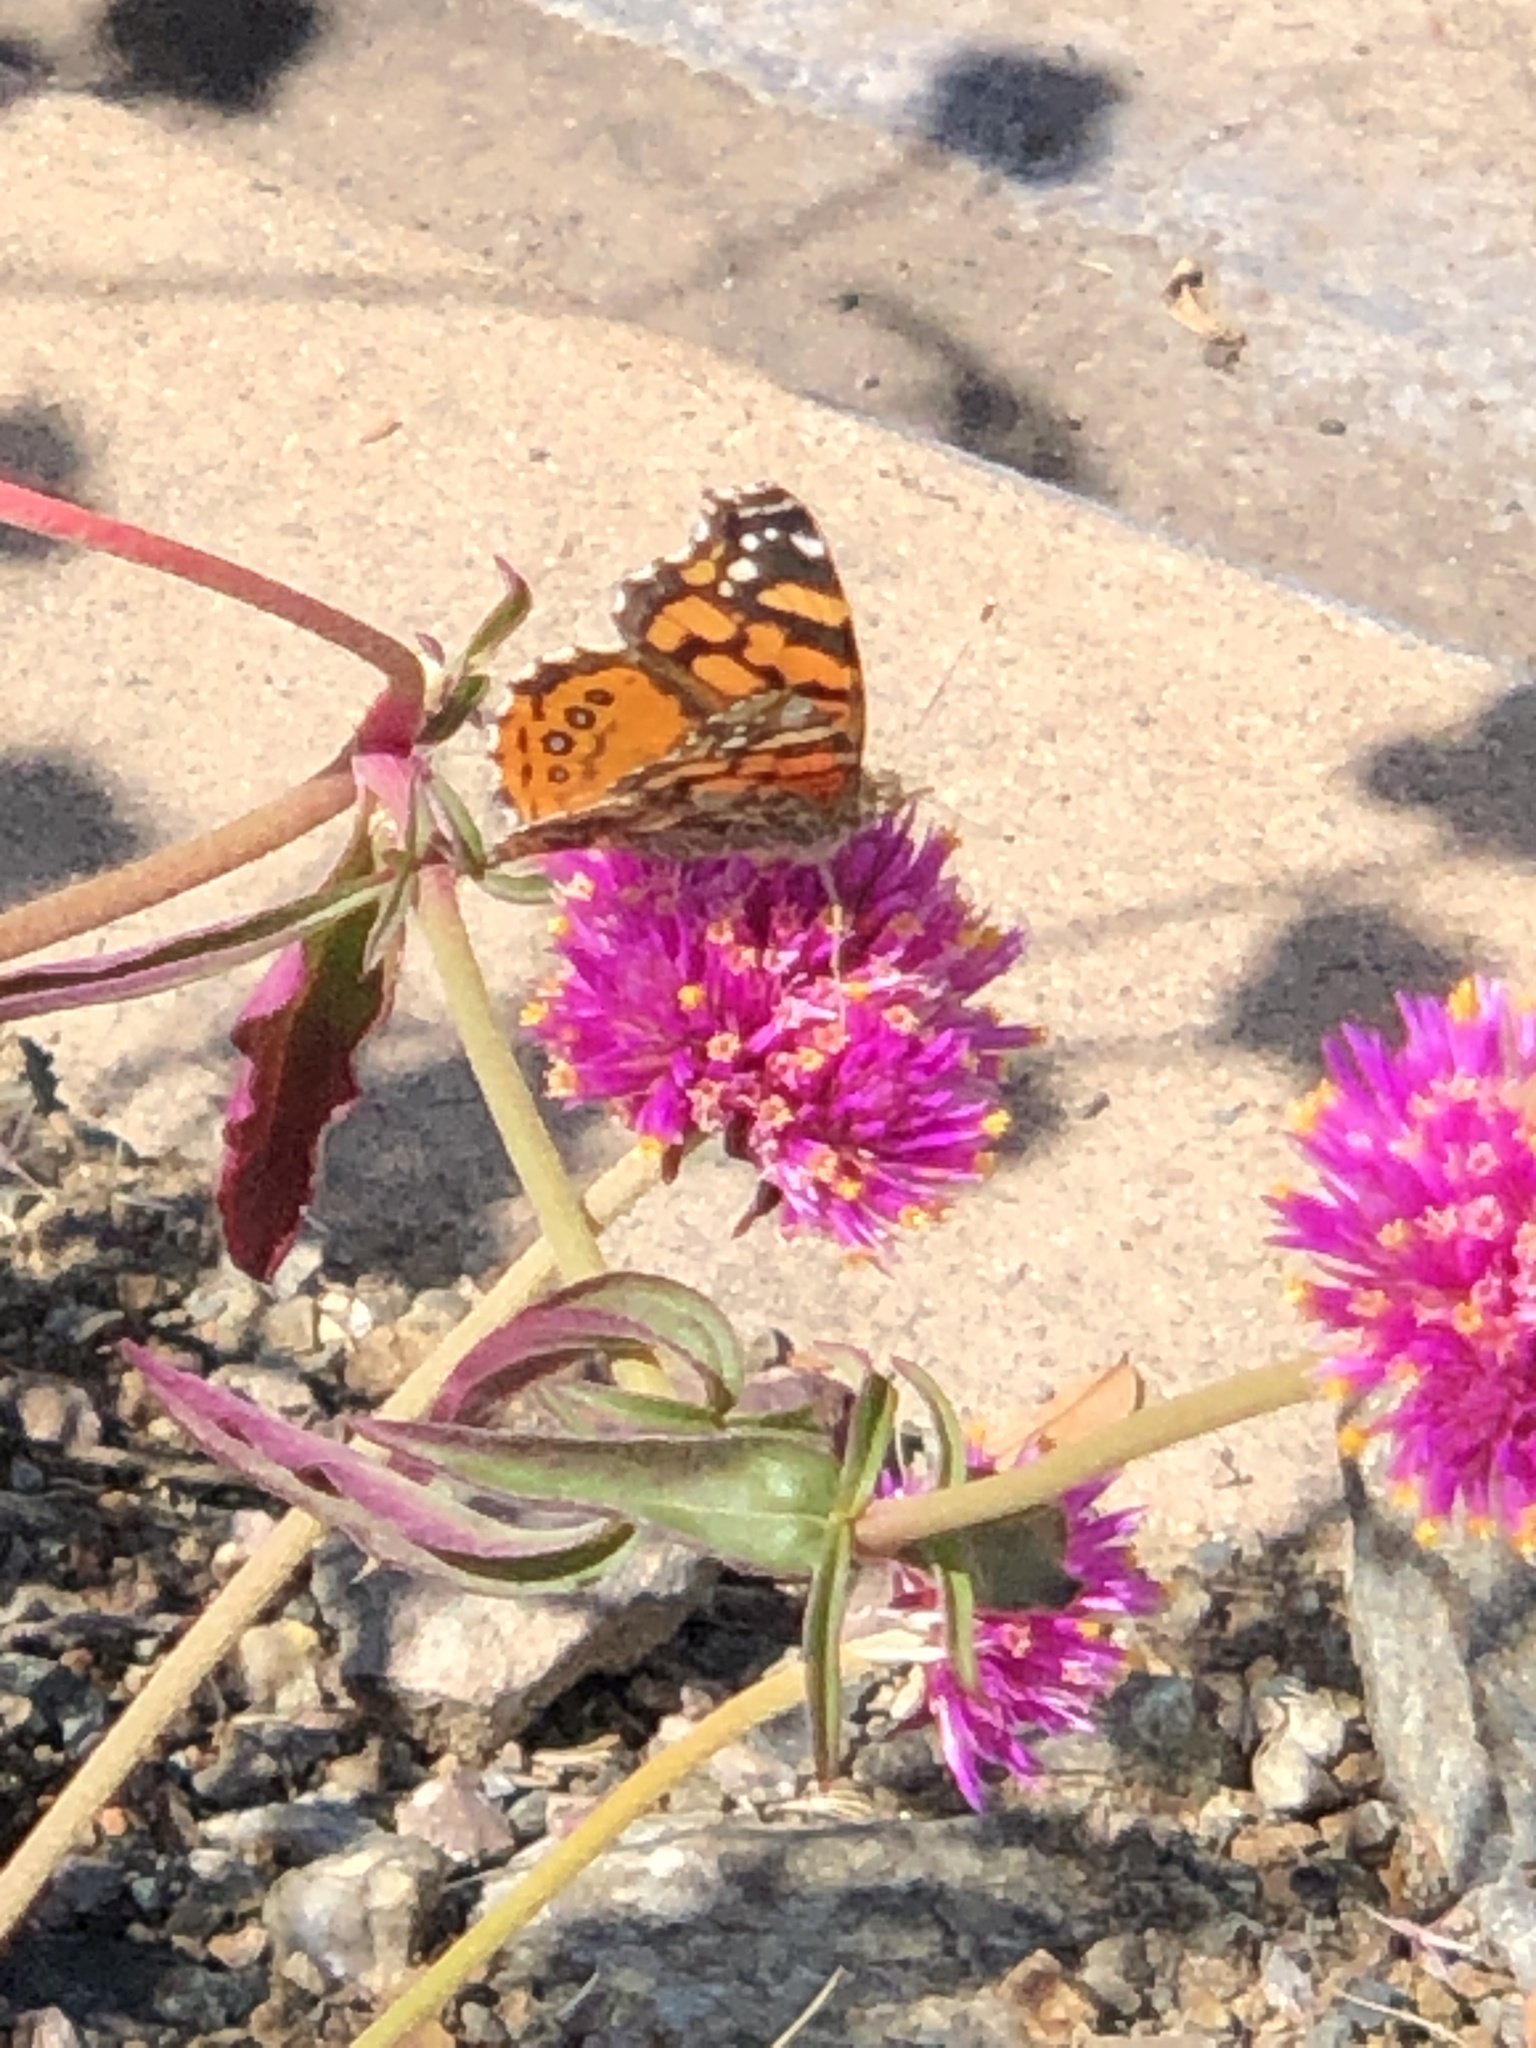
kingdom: Animalia
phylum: Arthropoda
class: Insecta
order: Lepidoptera
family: Nymphalidae
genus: Vanessa
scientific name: Vanessa annabella
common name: West coast lady
